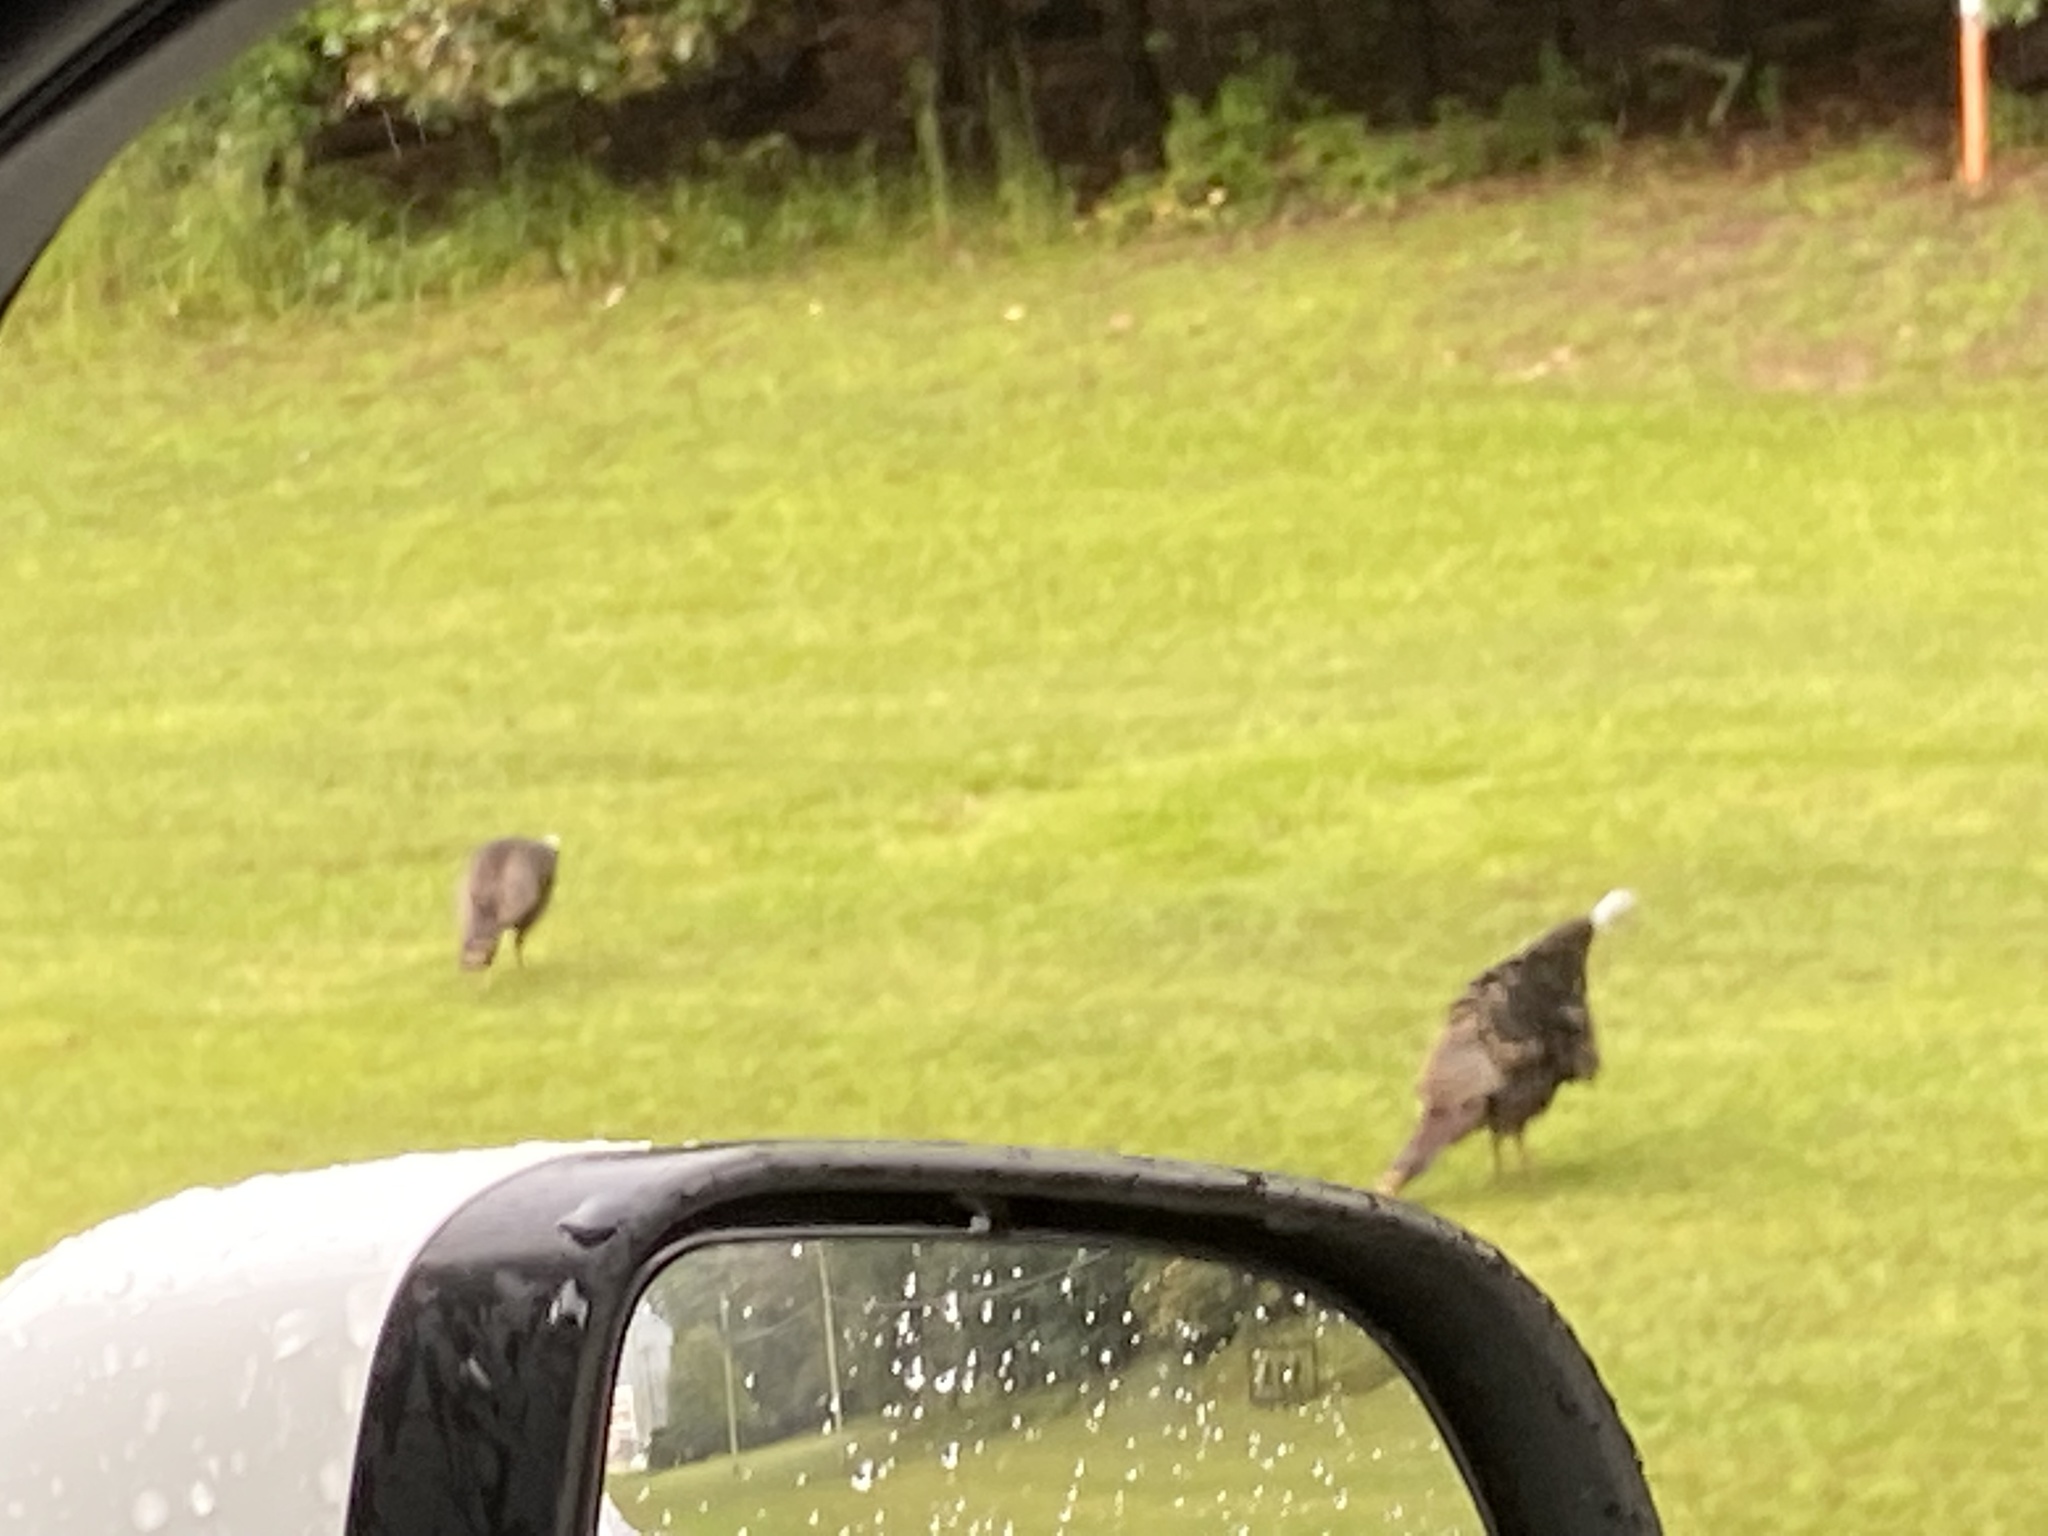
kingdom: Animalia
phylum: Chordata
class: Aves
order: Galliformes
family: Phasianidae
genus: Meleagris
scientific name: Meleagris gallopavo
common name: Wild turkey
